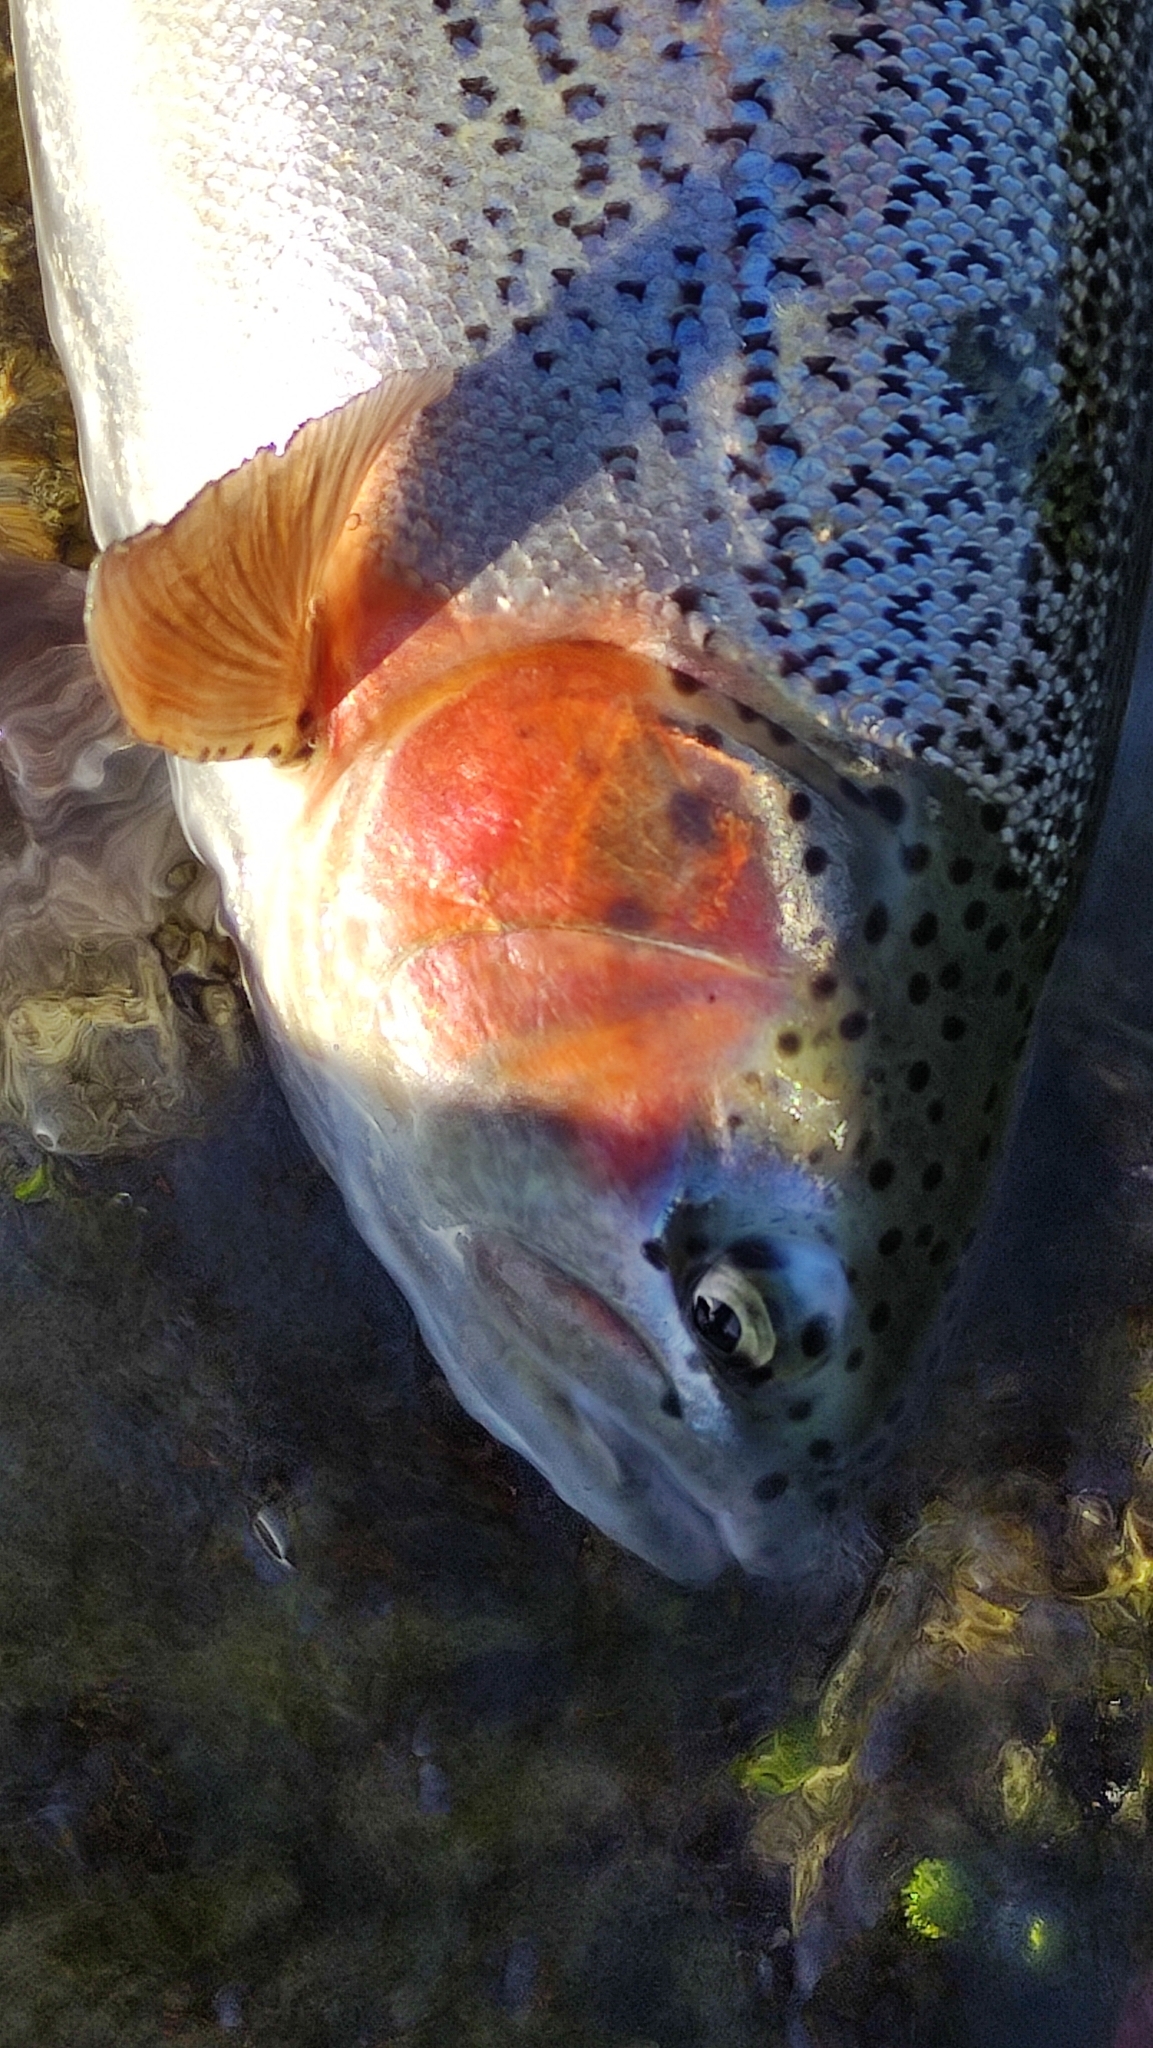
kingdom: Animalia
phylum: Chordata
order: Salmoniformes
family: Salmonidae
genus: Oncorhynchus
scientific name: Oncorhynchus mykiss
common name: Rainbow trout
